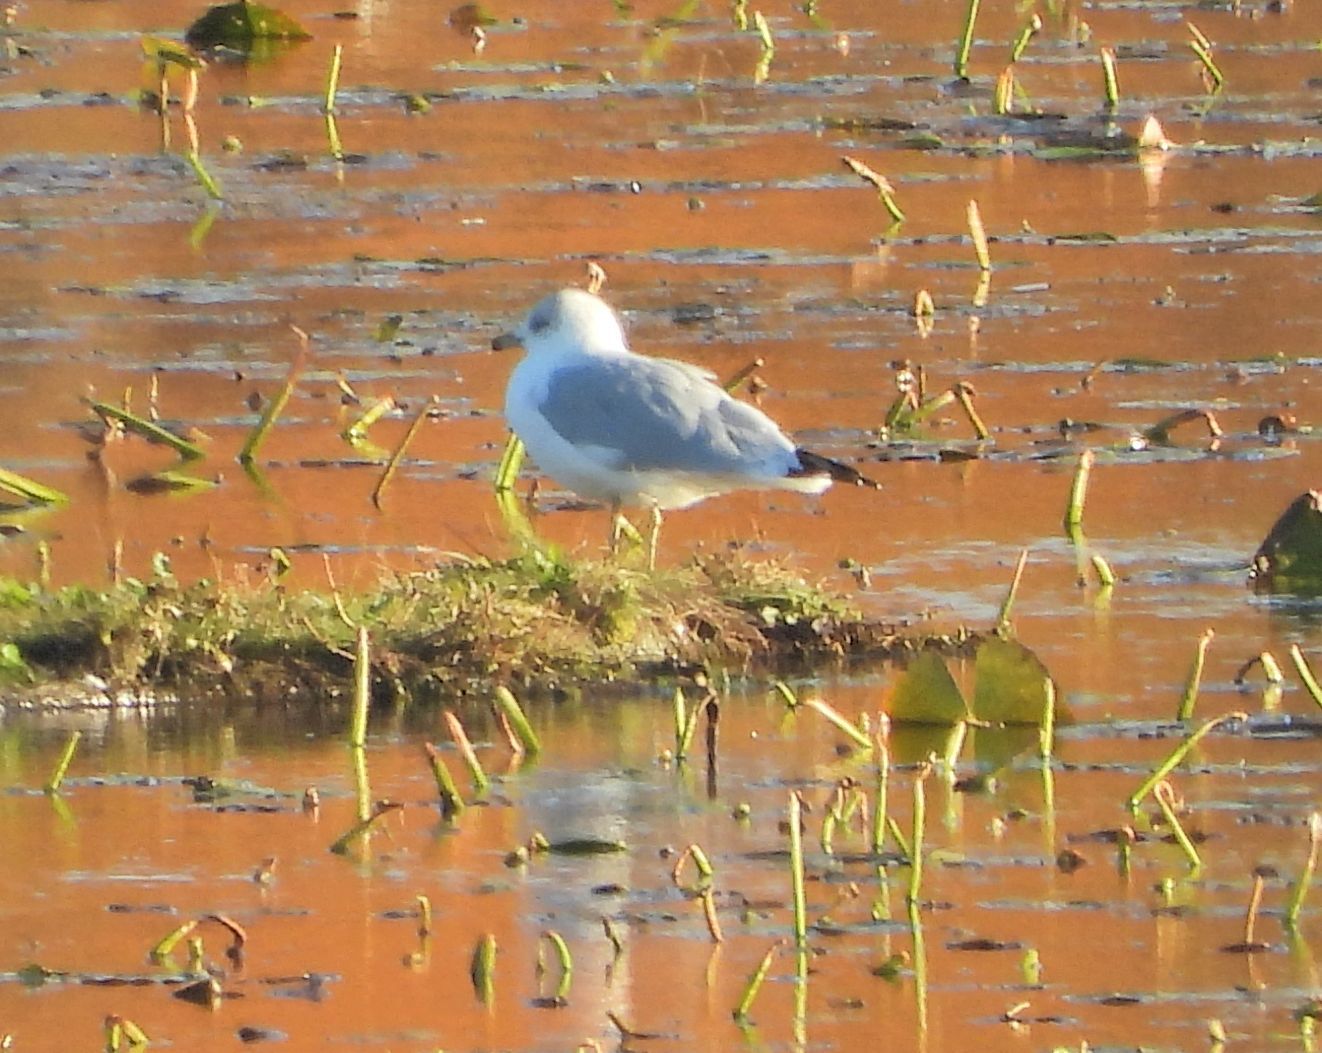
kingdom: Animalia
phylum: Chordata
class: Aves
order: Charadriiformes
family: Laridae
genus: Larus
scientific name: Larus delawarensis
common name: Ring-billed gull
